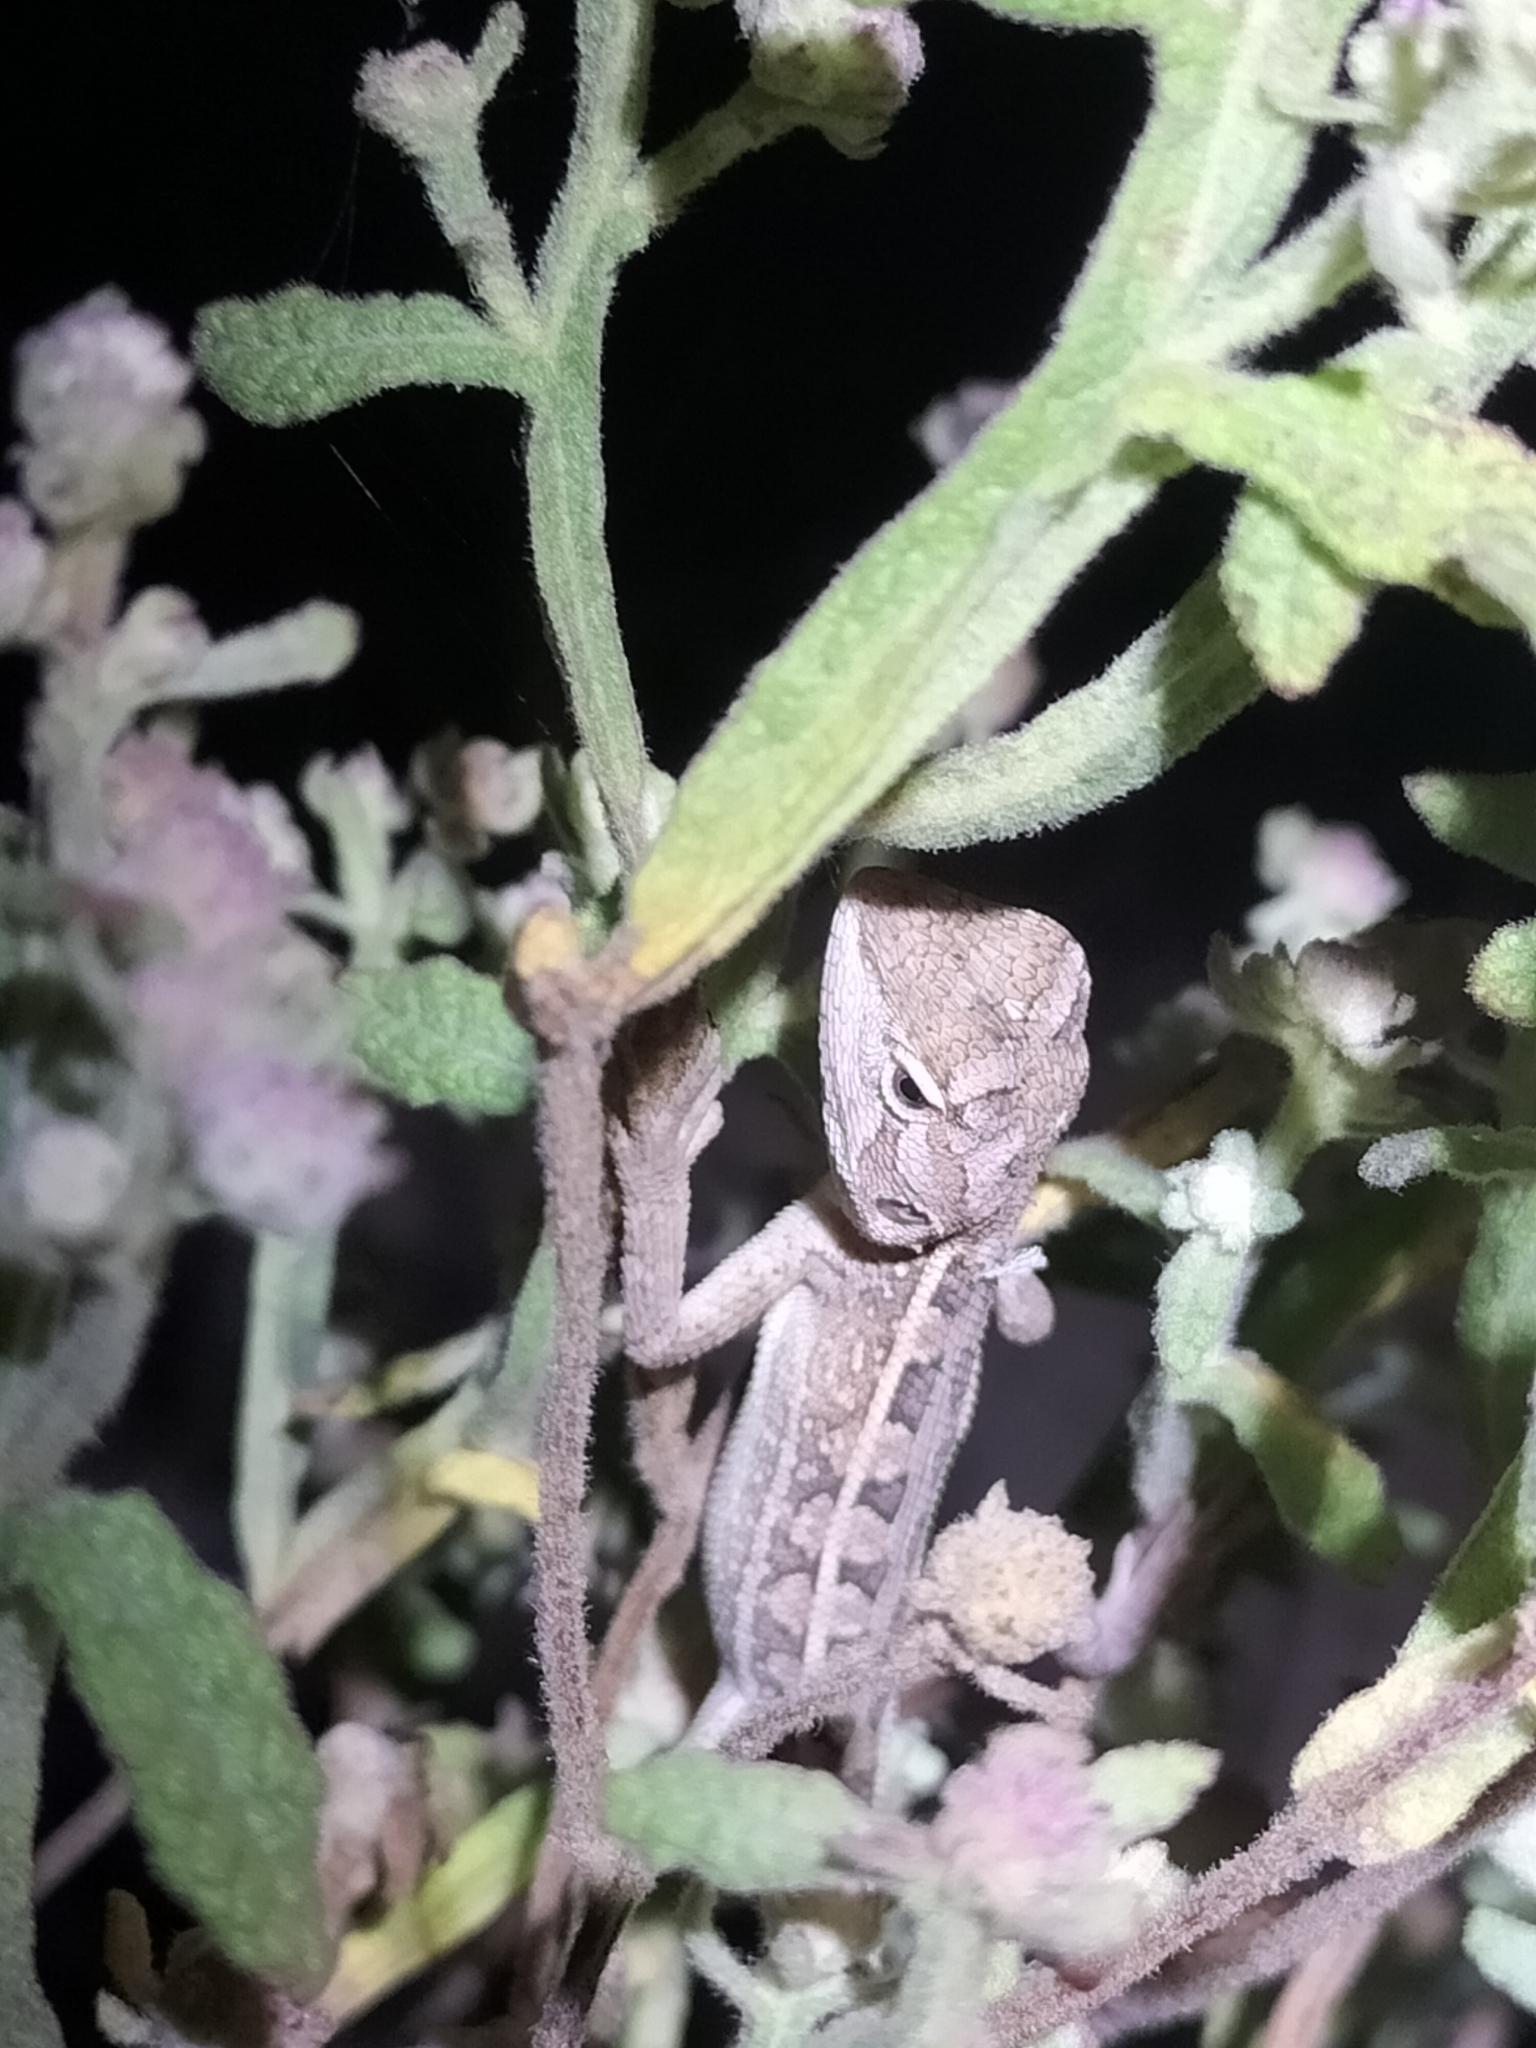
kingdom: Animalia
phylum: Chordata
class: Squamata
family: Agamidae
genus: Diporiphora
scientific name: Diporiphora australis
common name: Eastern two-line dragon
